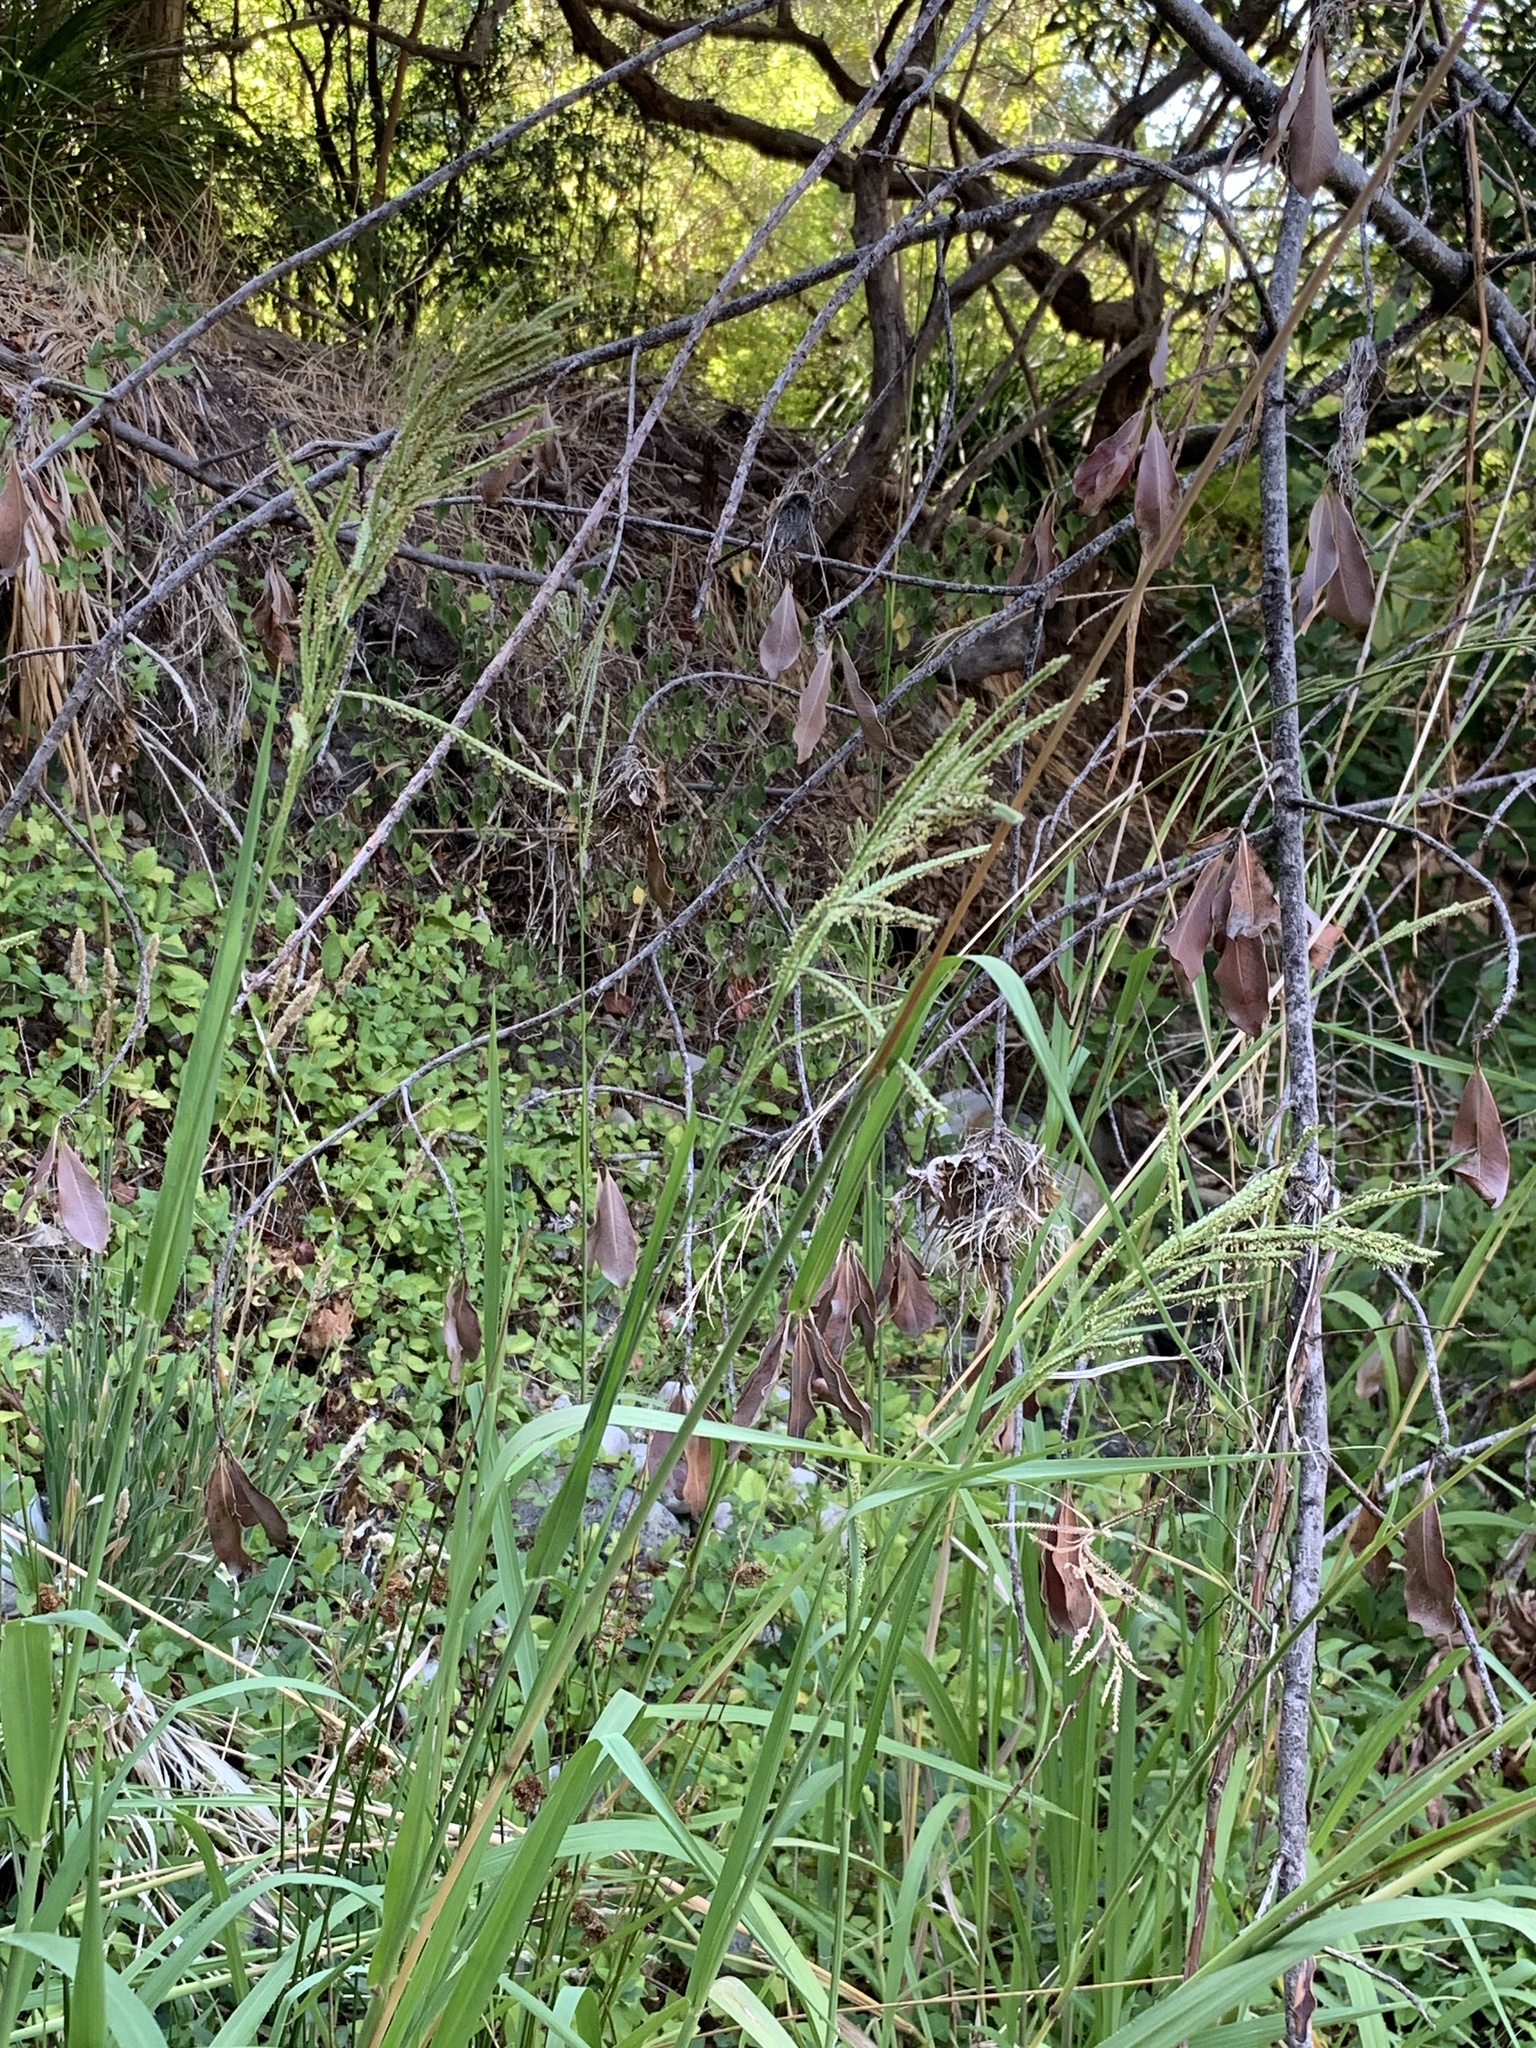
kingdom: Plantae
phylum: Tracheophyta
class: Liliopsida
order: Poales
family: Poaceae
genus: Paspalum
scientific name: Paspalum urvillei
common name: Vasey's grass
